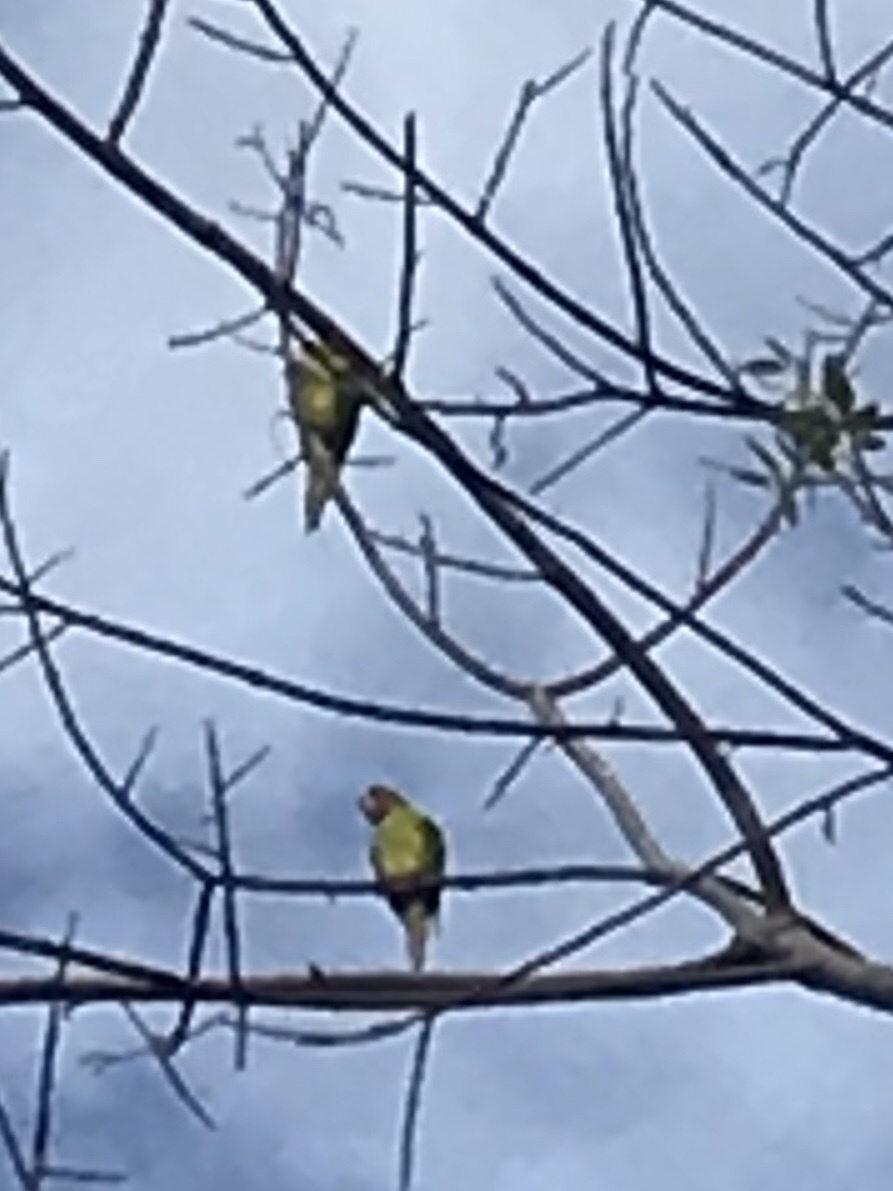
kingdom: Animalia
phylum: Chordata
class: Aves
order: Psittaciformes
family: Psittacidae
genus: Aratinga
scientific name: Aratinga canicularis
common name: Orange-fronted parakeet
